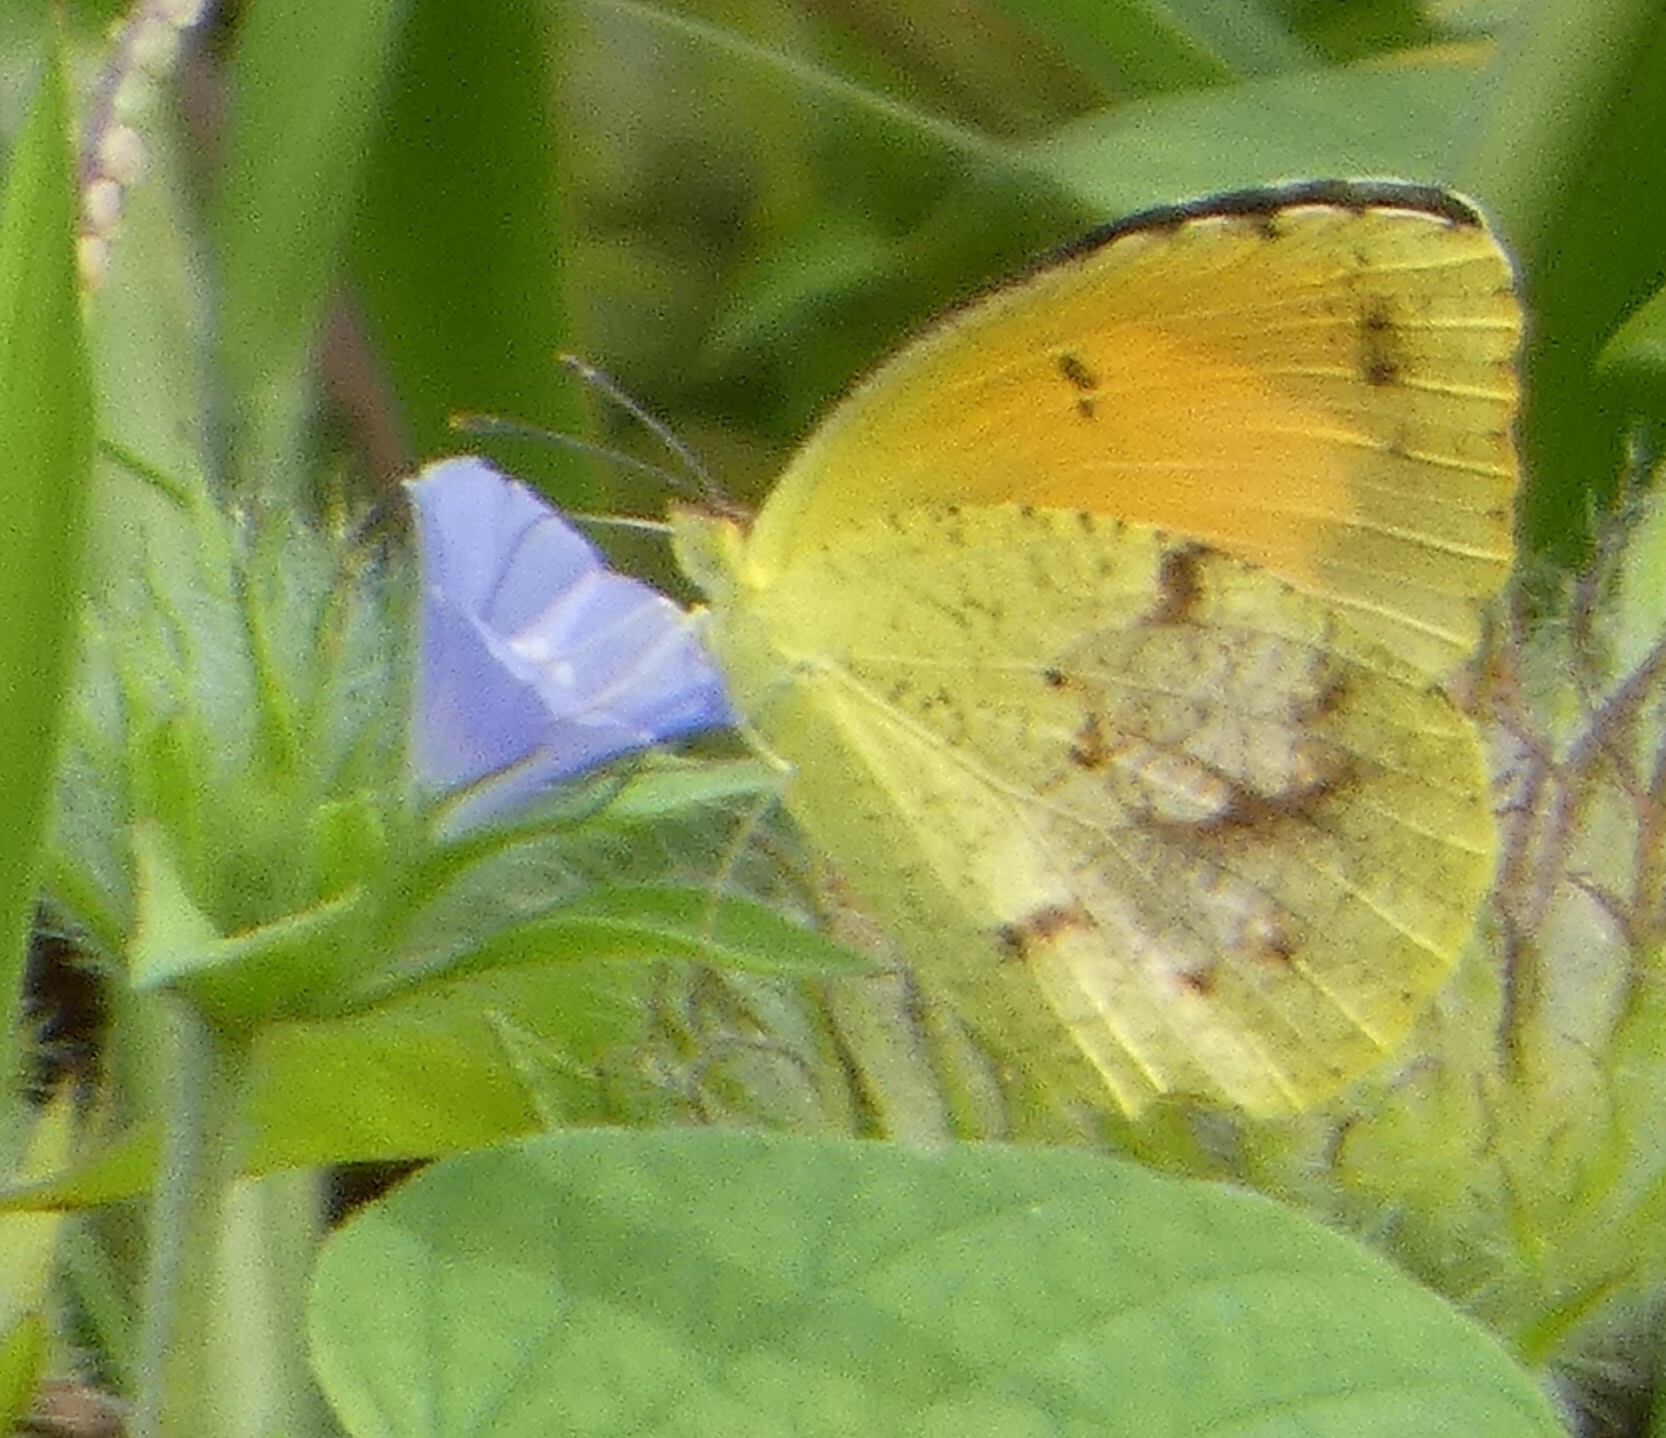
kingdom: Animalia
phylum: Arthropoda
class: Insecta
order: Lepidoptera
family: Pieridae
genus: Abaeis
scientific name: Abaeis nicippe
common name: Sleepy orange
